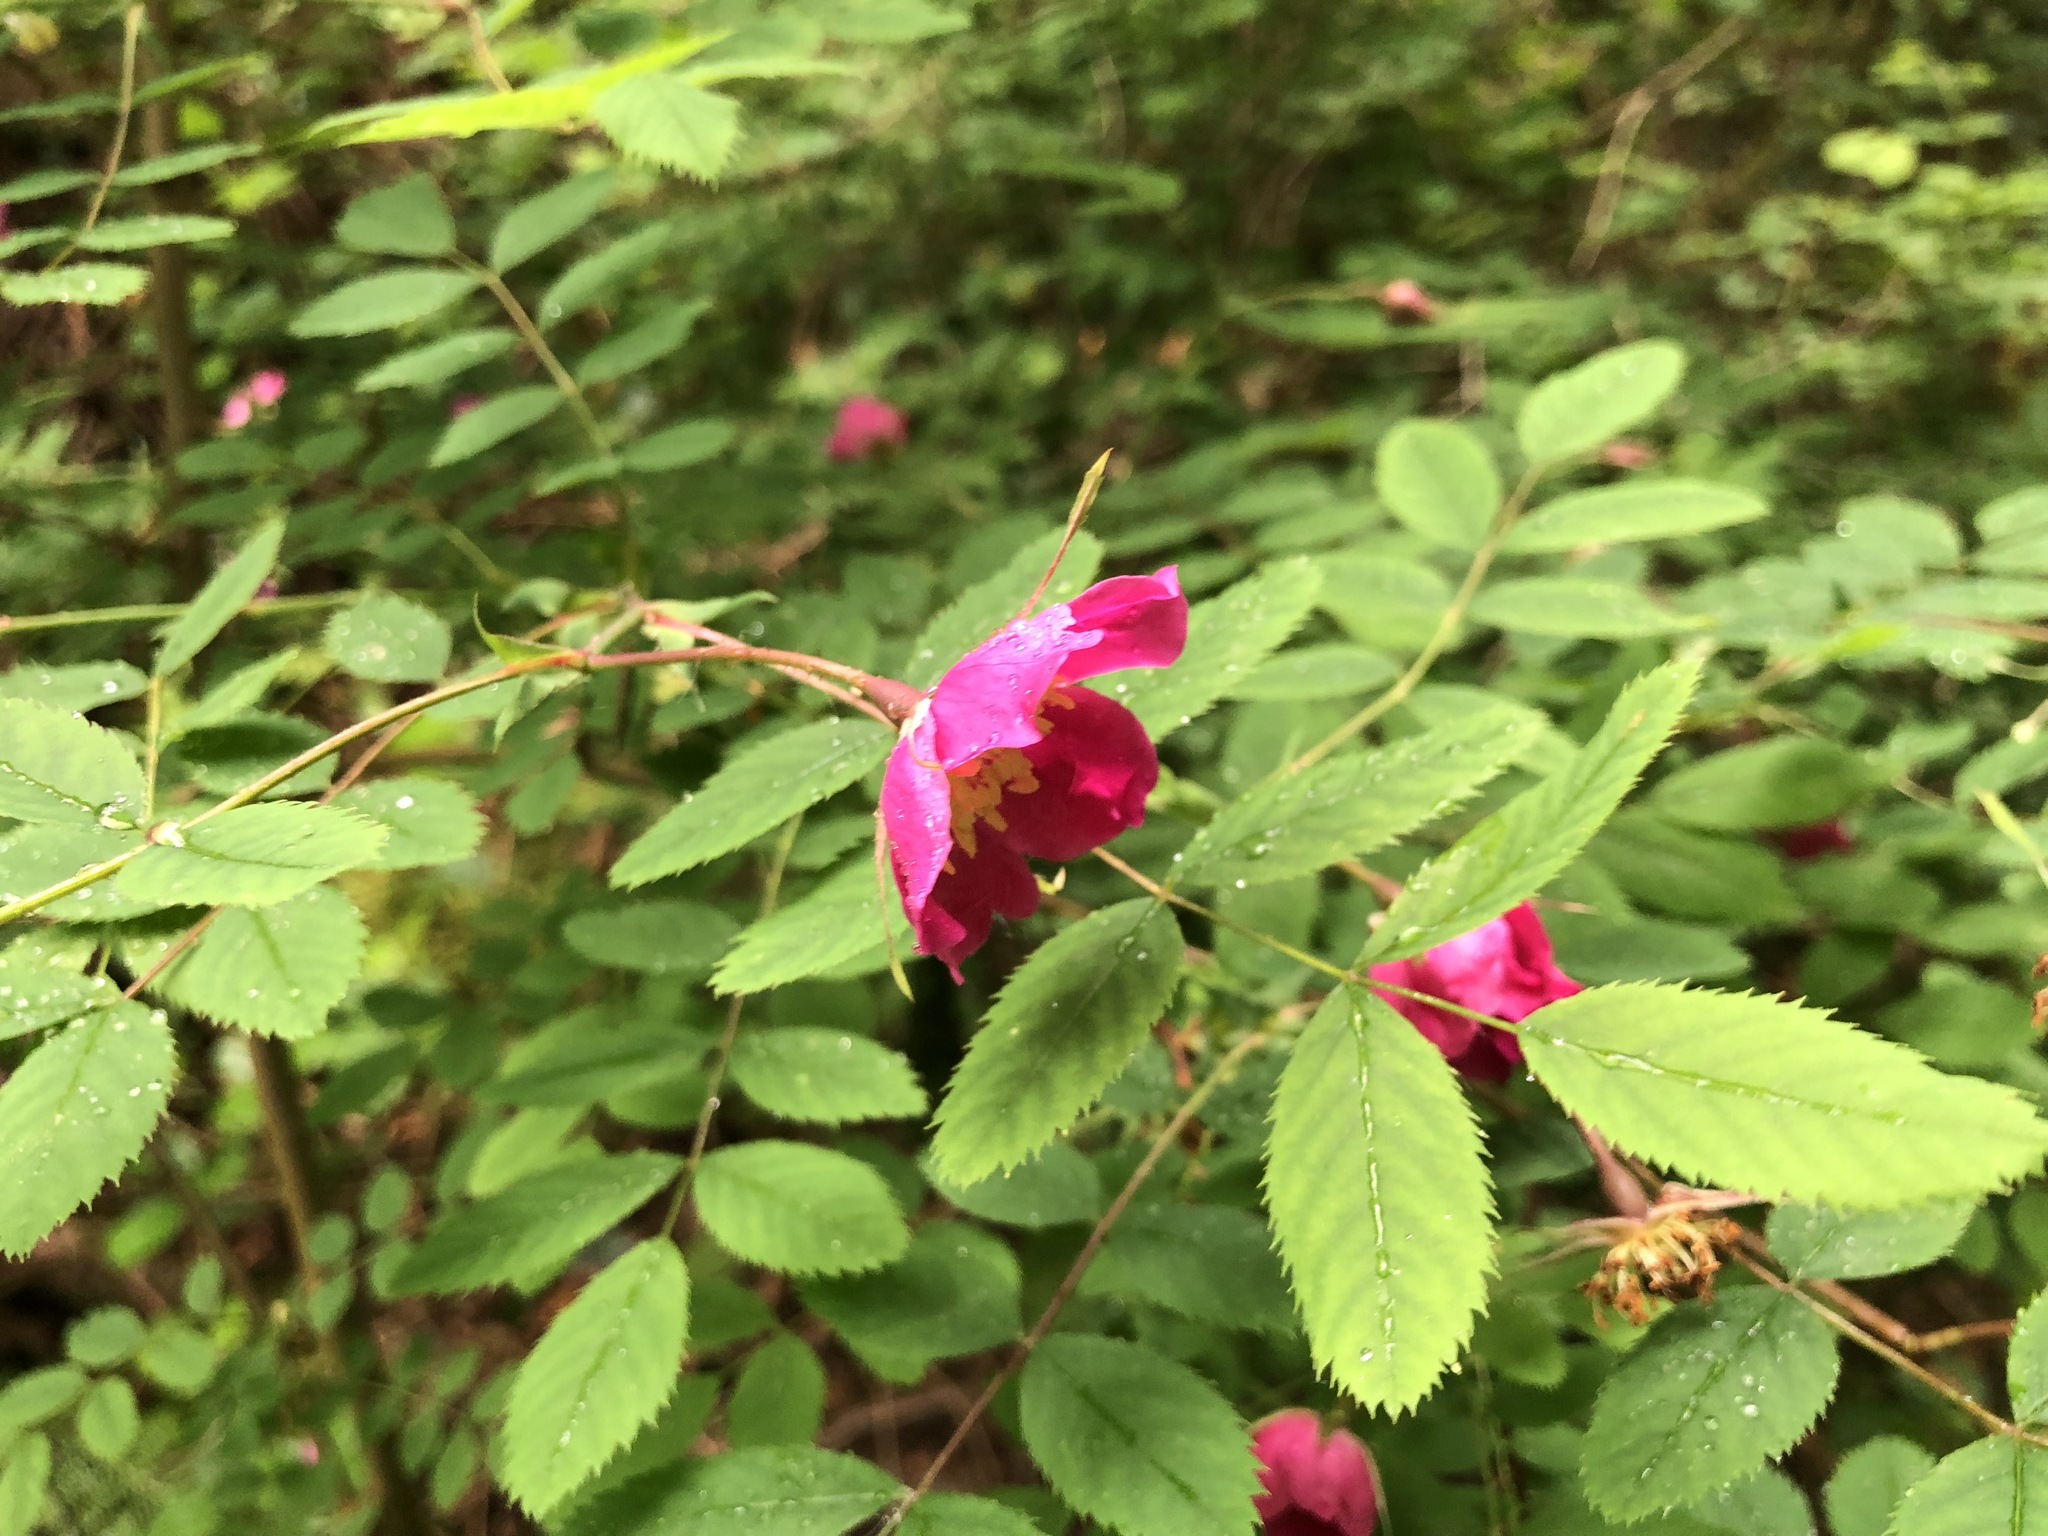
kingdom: Plantae
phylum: Tracheophyta
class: Magnoliopsida
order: Rosales
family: Rosaceae
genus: Rosa
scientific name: Rosa pendulina
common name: Alpine rose
